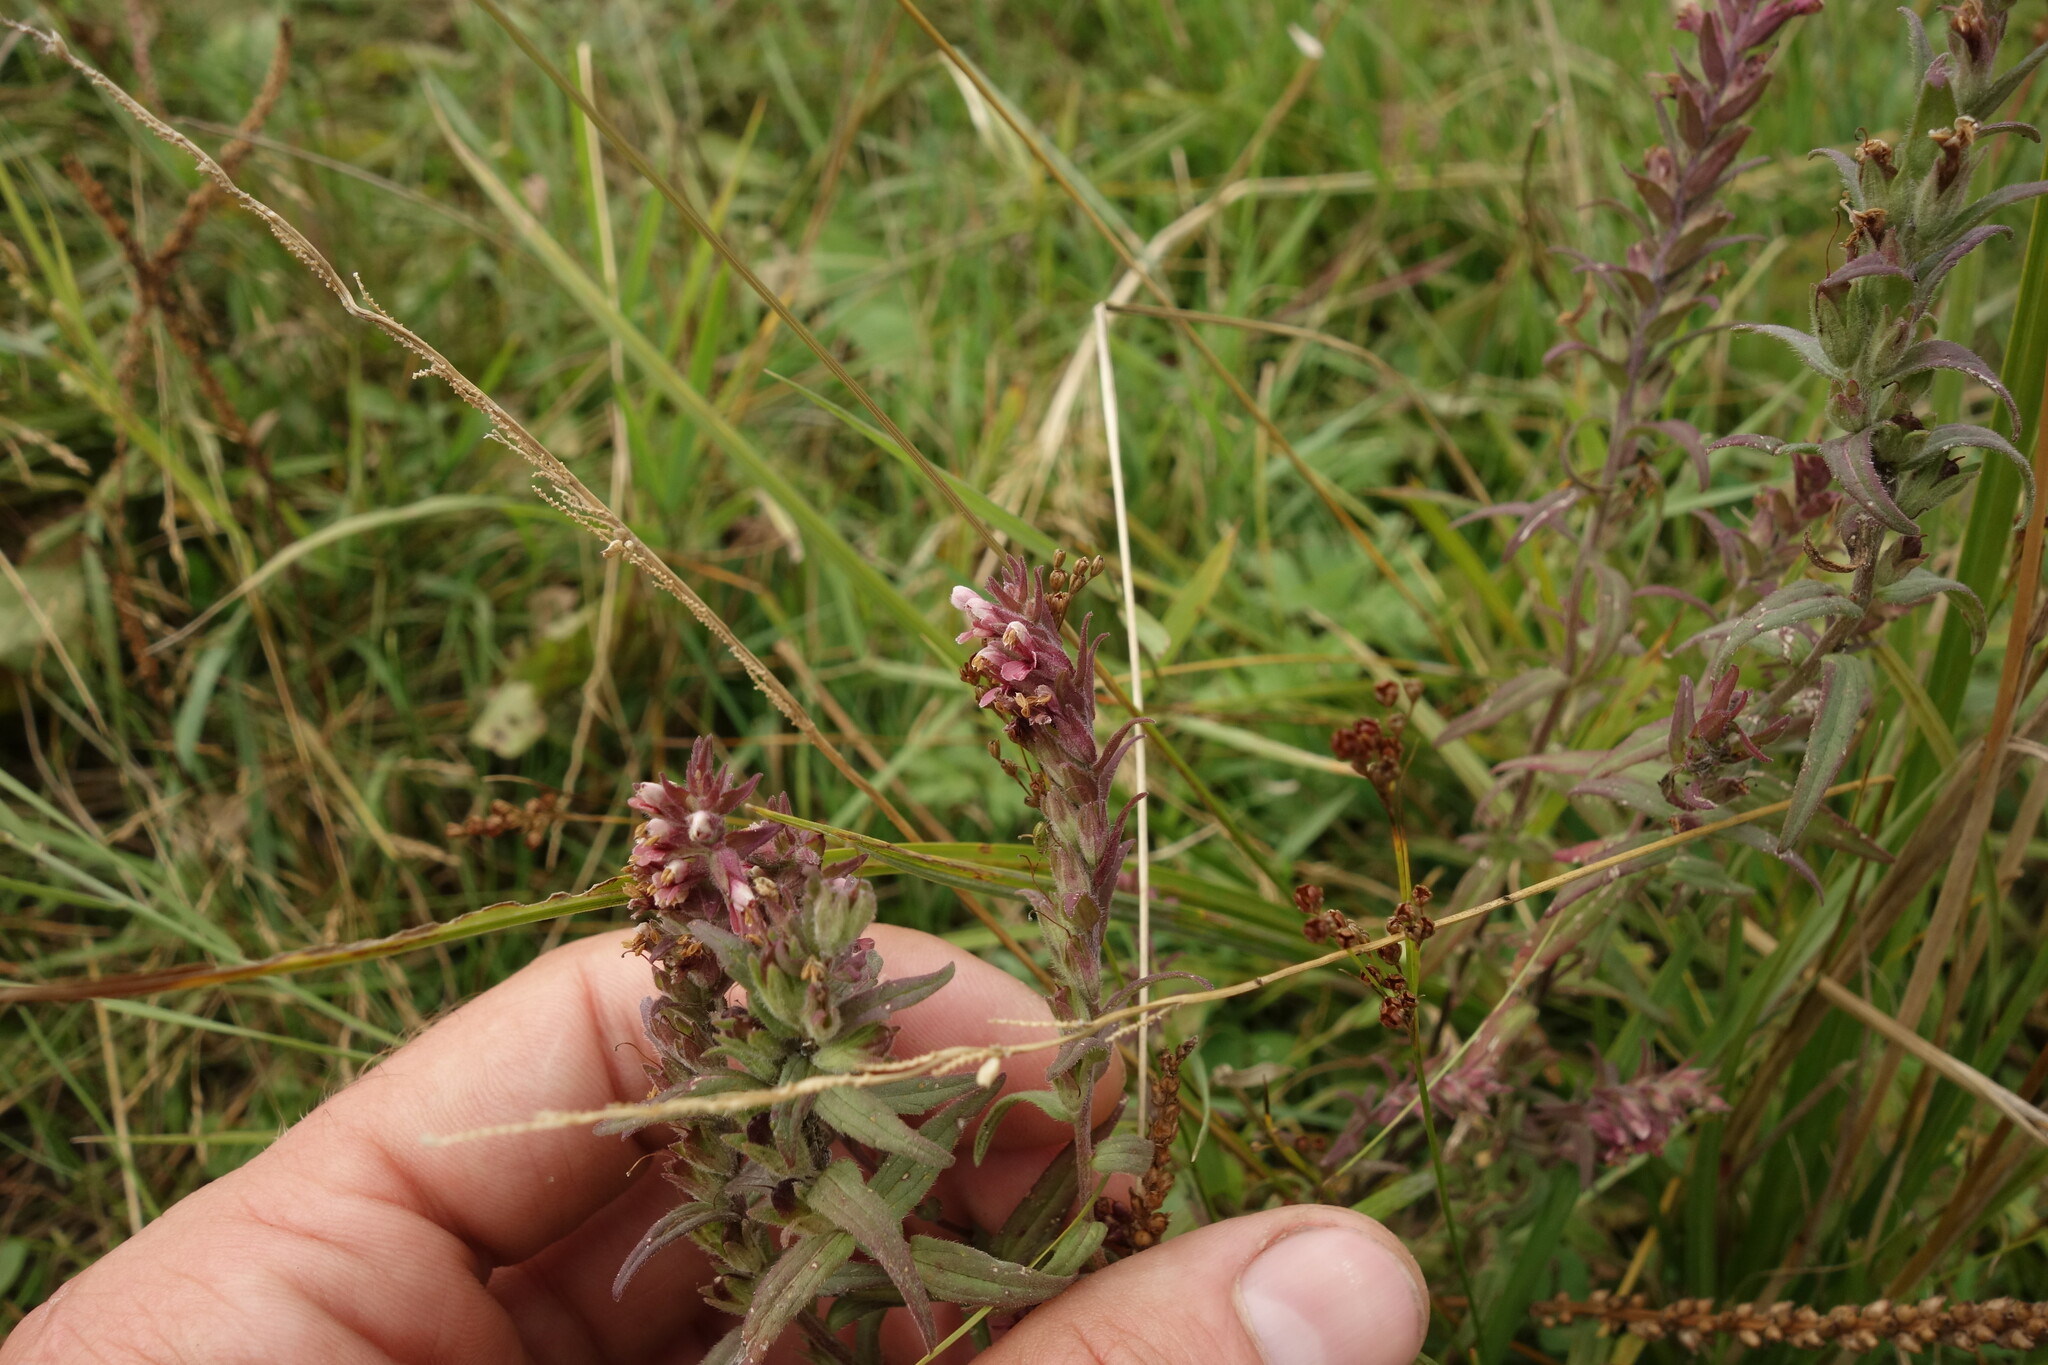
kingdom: Plantae
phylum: Tracheophyta
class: Magnoliopsida
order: Lamiales
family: Orobanchaceae
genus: Odontites
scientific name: Odontites vulgaris
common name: Broomrape
